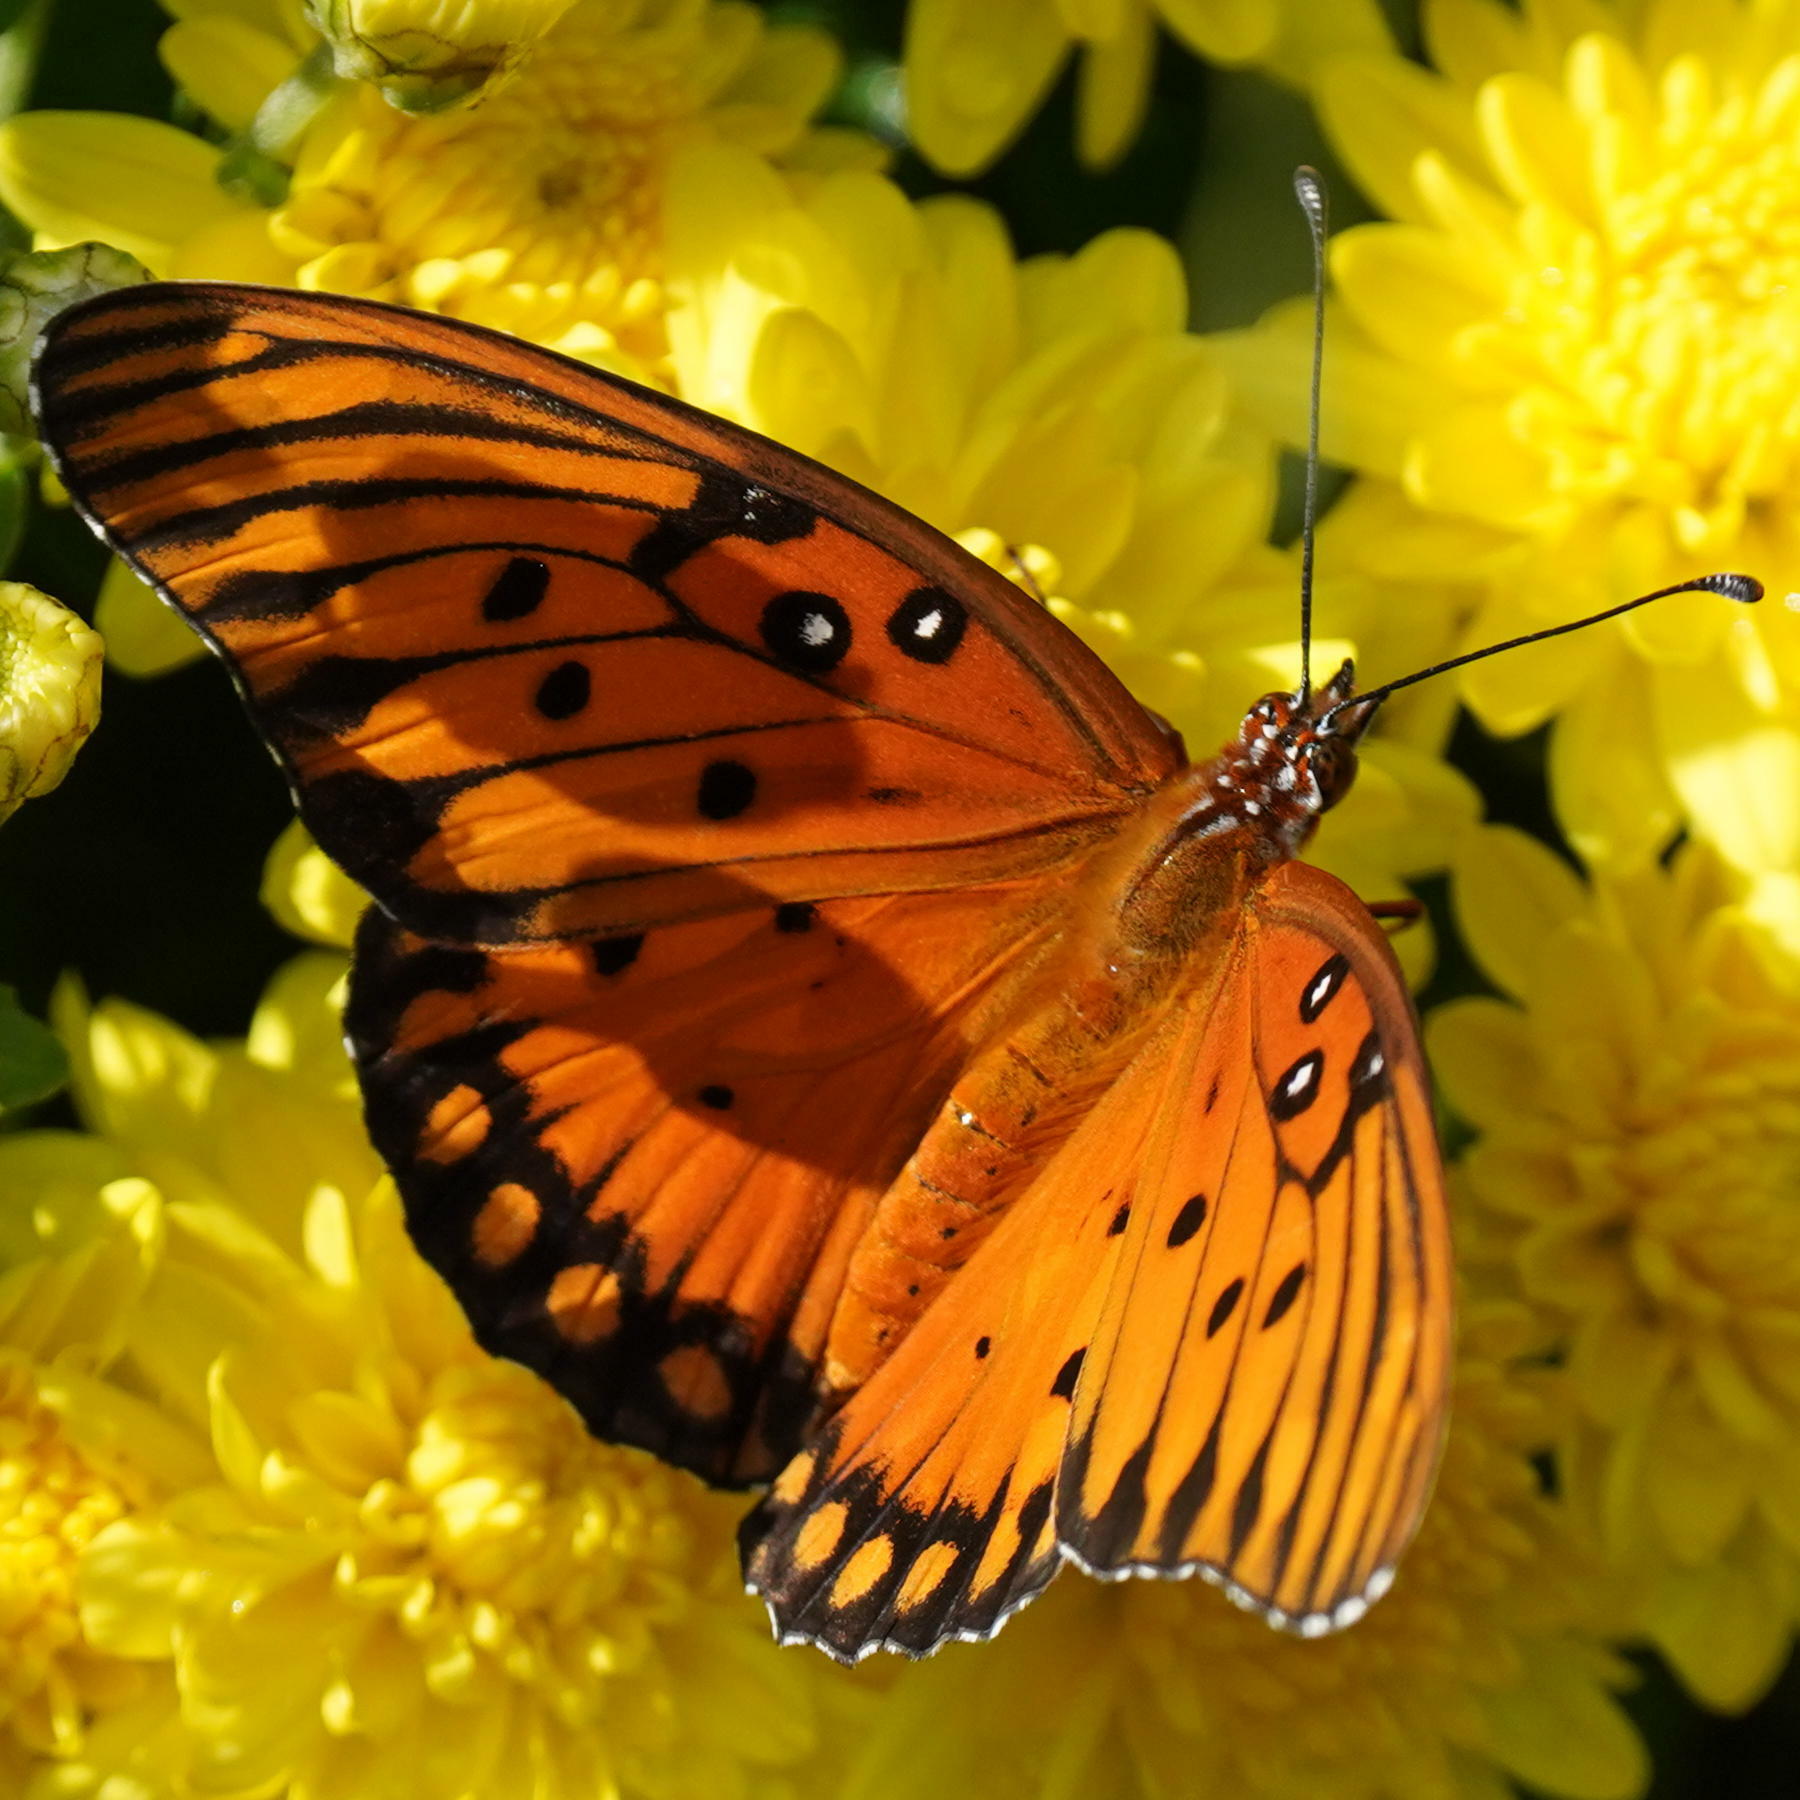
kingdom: Animalia
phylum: Arthropoda
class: Insecta
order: Lepidoptera
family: Nymphalidae
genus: Dione
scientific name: Dione vanillae
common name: Gulf fritillary
